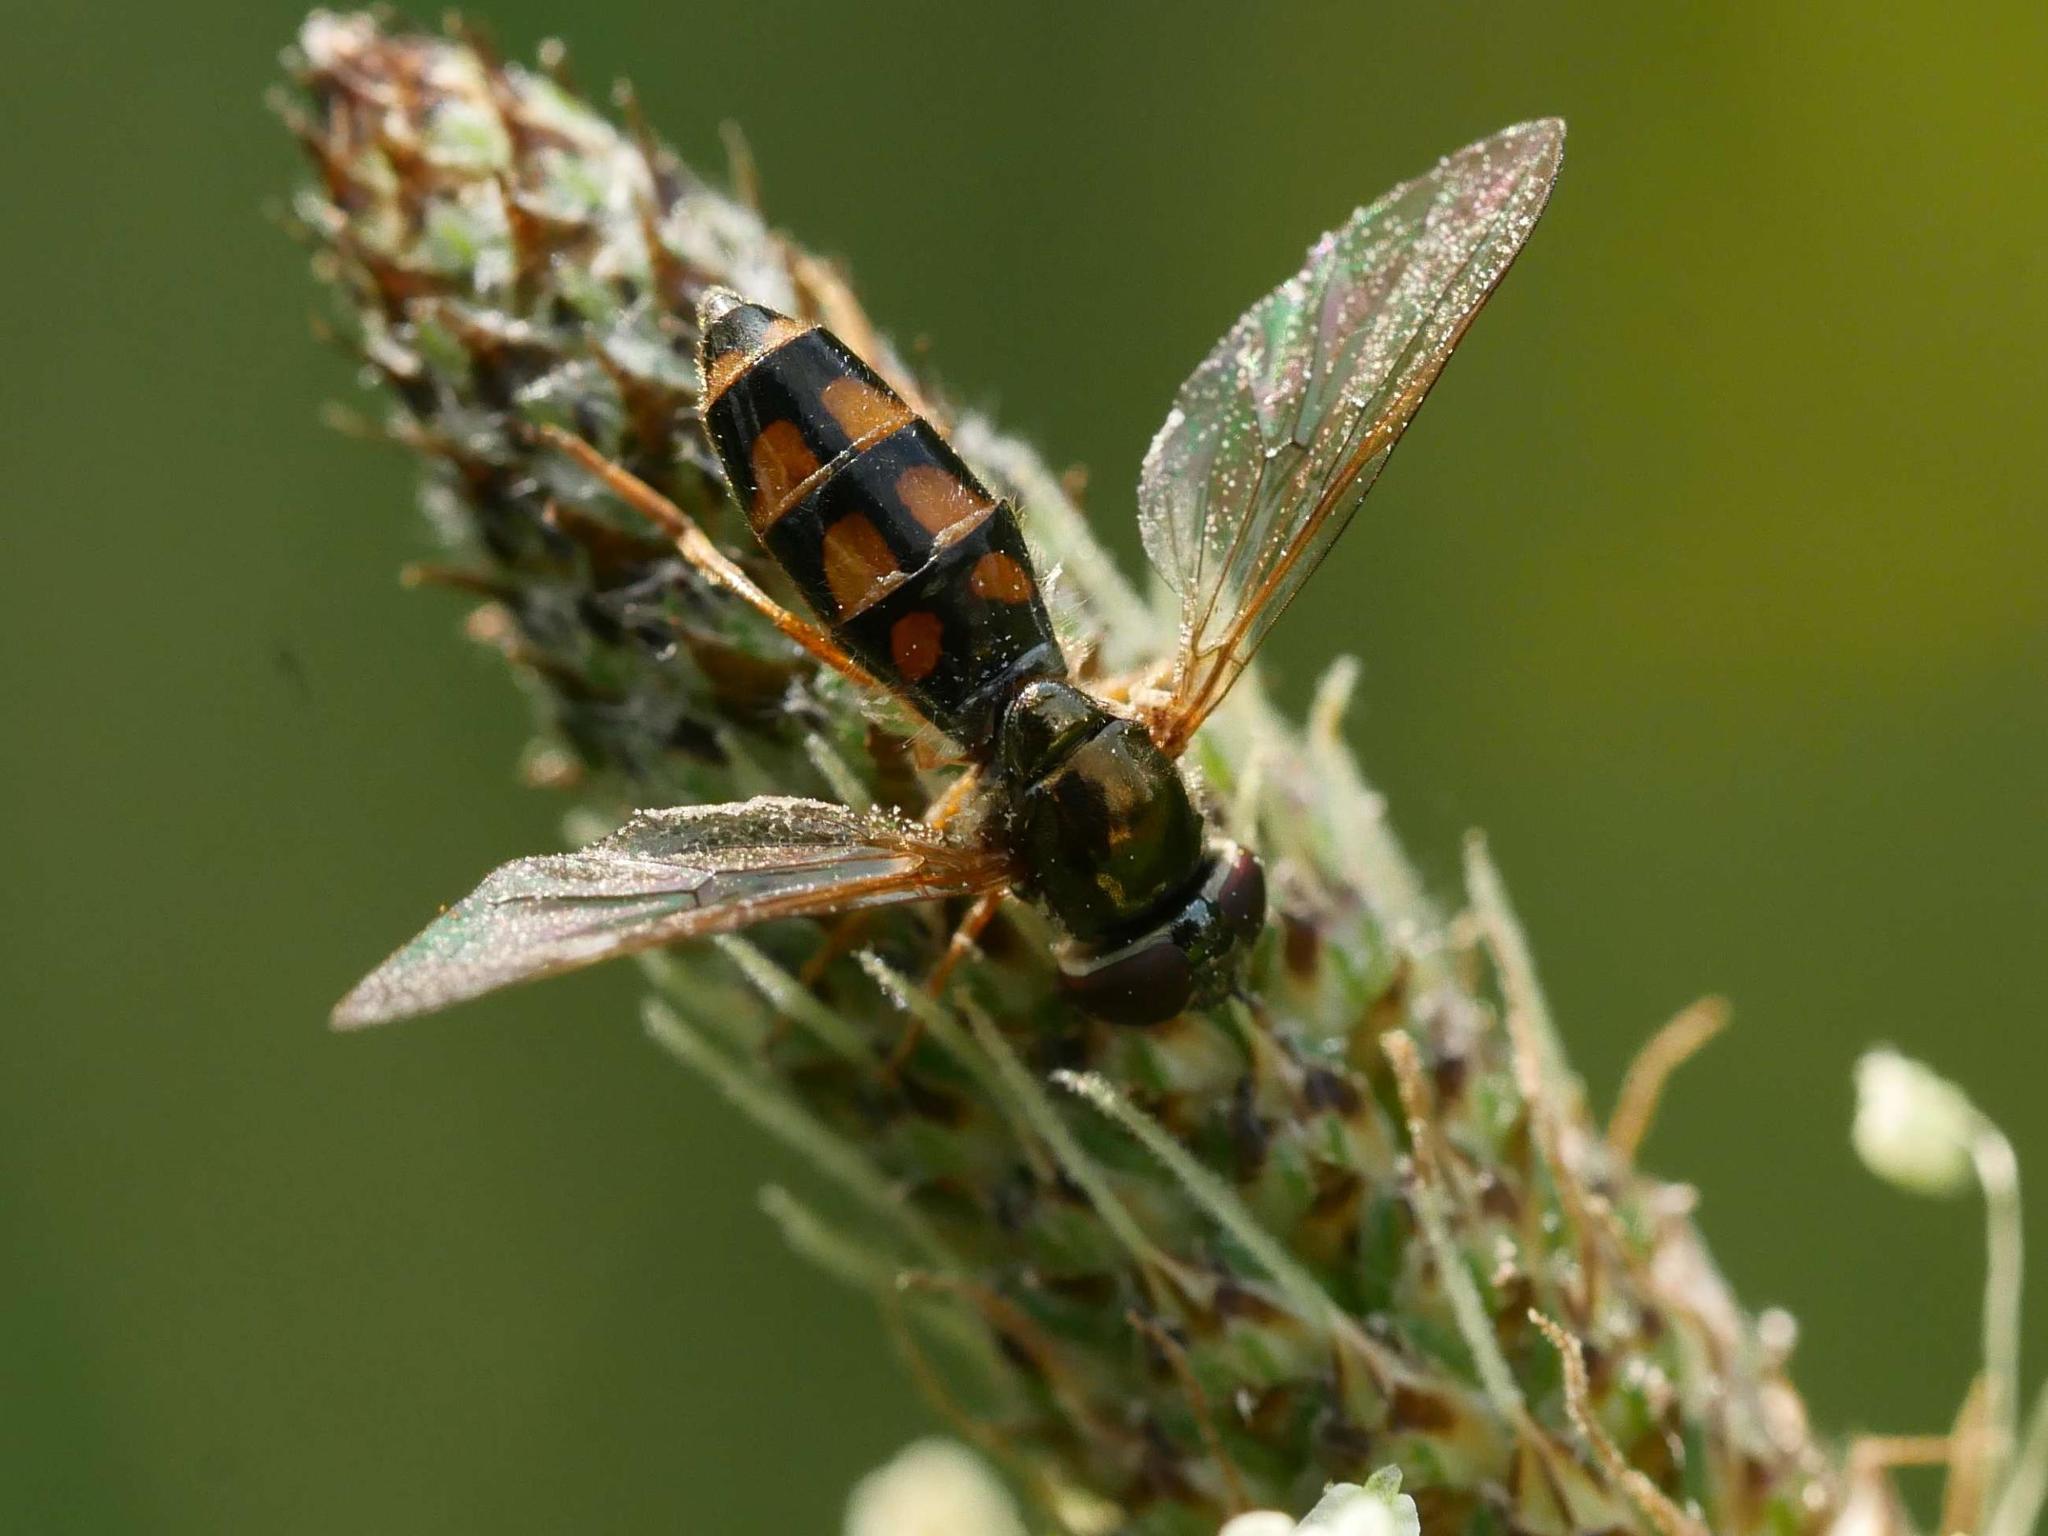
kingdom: Animalia
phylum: Arthropoda
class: Insecta
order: Diptera
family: Syrphidae
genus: Melanostoma
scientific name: Melanostoma mellina
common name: Hover fly
